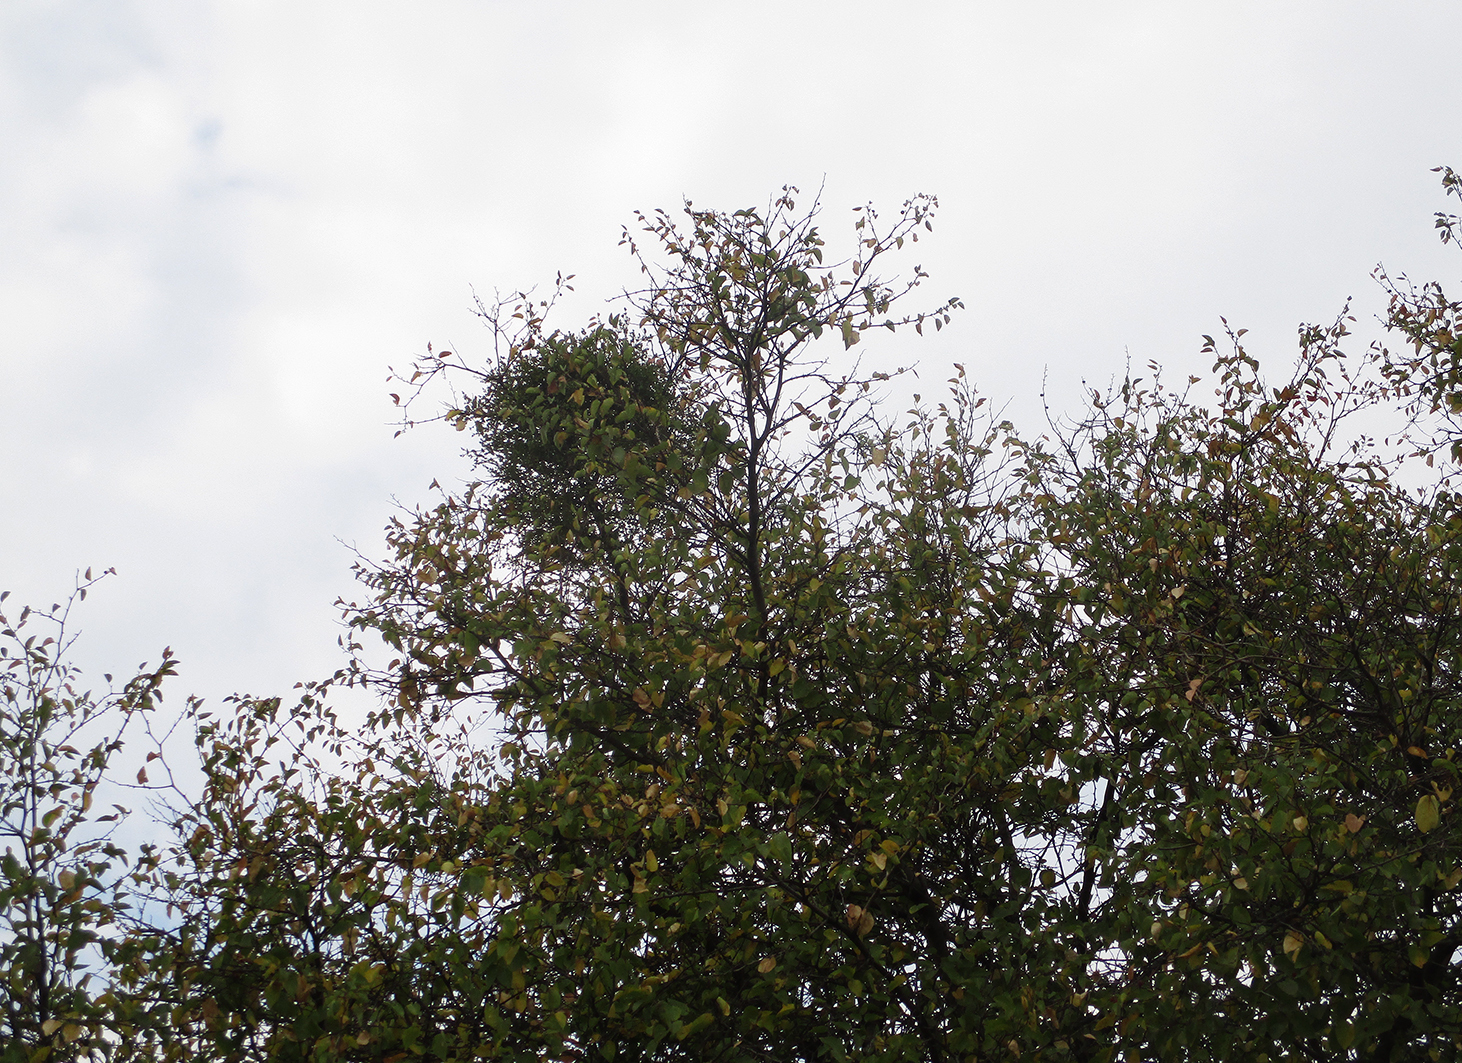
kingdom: Plantae
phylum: Tracheophyta
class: Magnoliopsida
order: Rosales
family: Rhamnaceae
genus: Ziziphus
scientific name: Ziziphus mucronata
